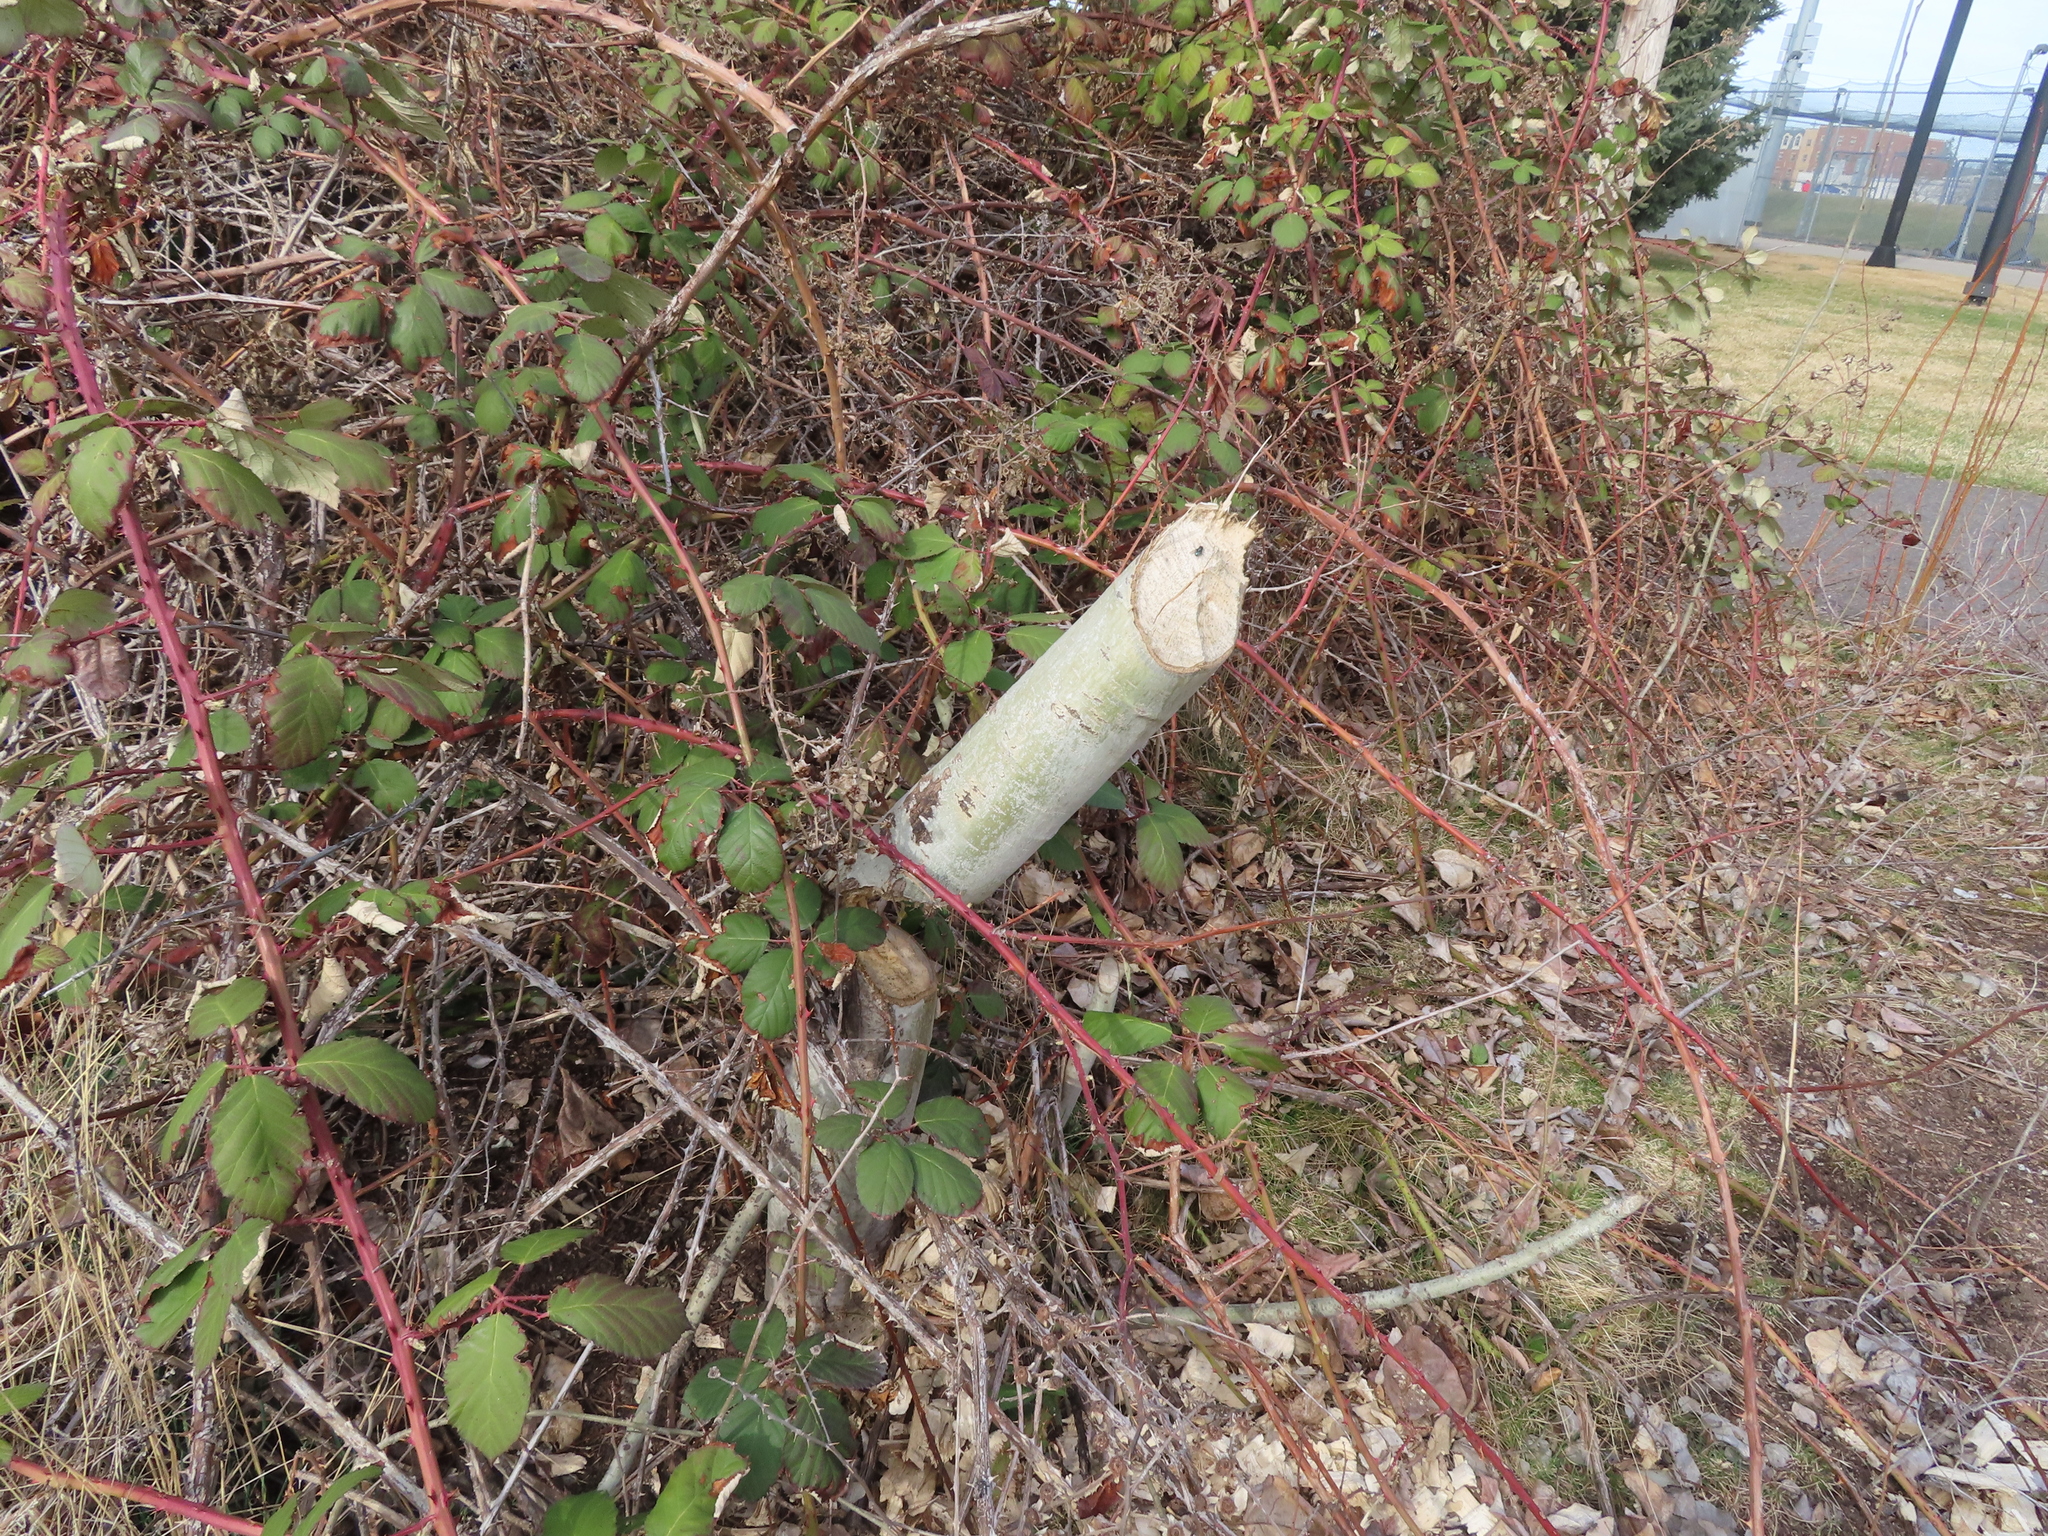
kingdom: Animalia
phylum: Chordata
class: Mammalia
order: Rodentia
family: Castoridae
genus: Castor
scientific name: Castor canadensis
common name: American beaver
